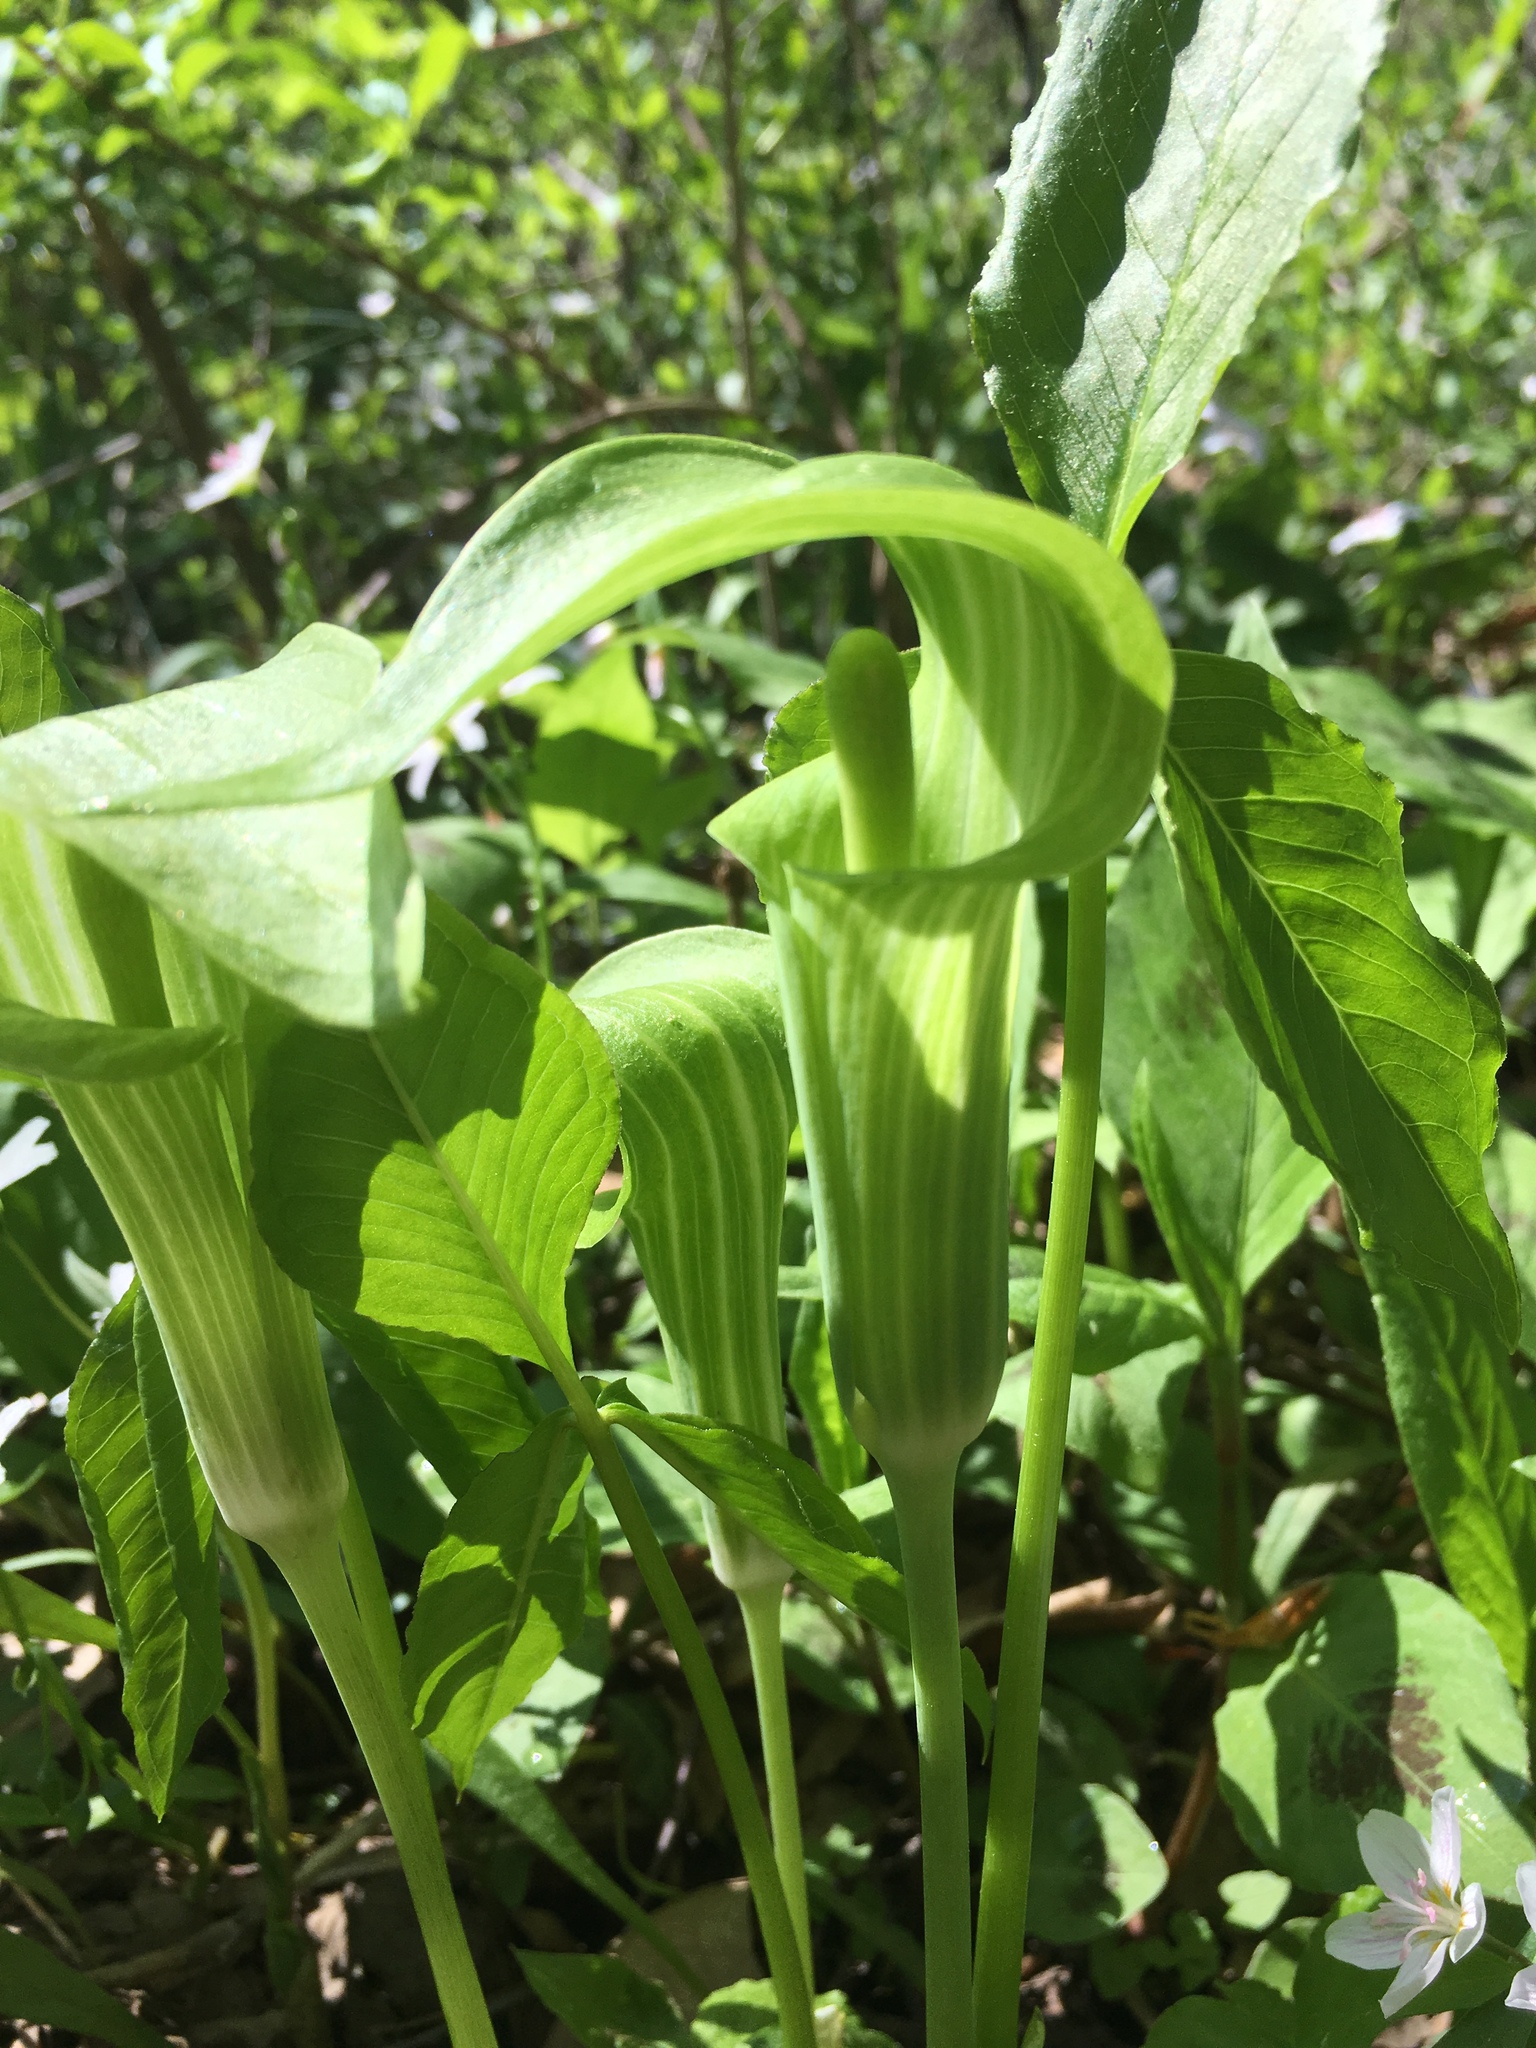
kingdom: Plantae
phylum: Tracheophyta
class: Liliopsida
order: Alismatales
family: Araceae
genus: Arisaema
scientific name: Arisaema triphyllum
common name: Jack-in-the-pulpit
